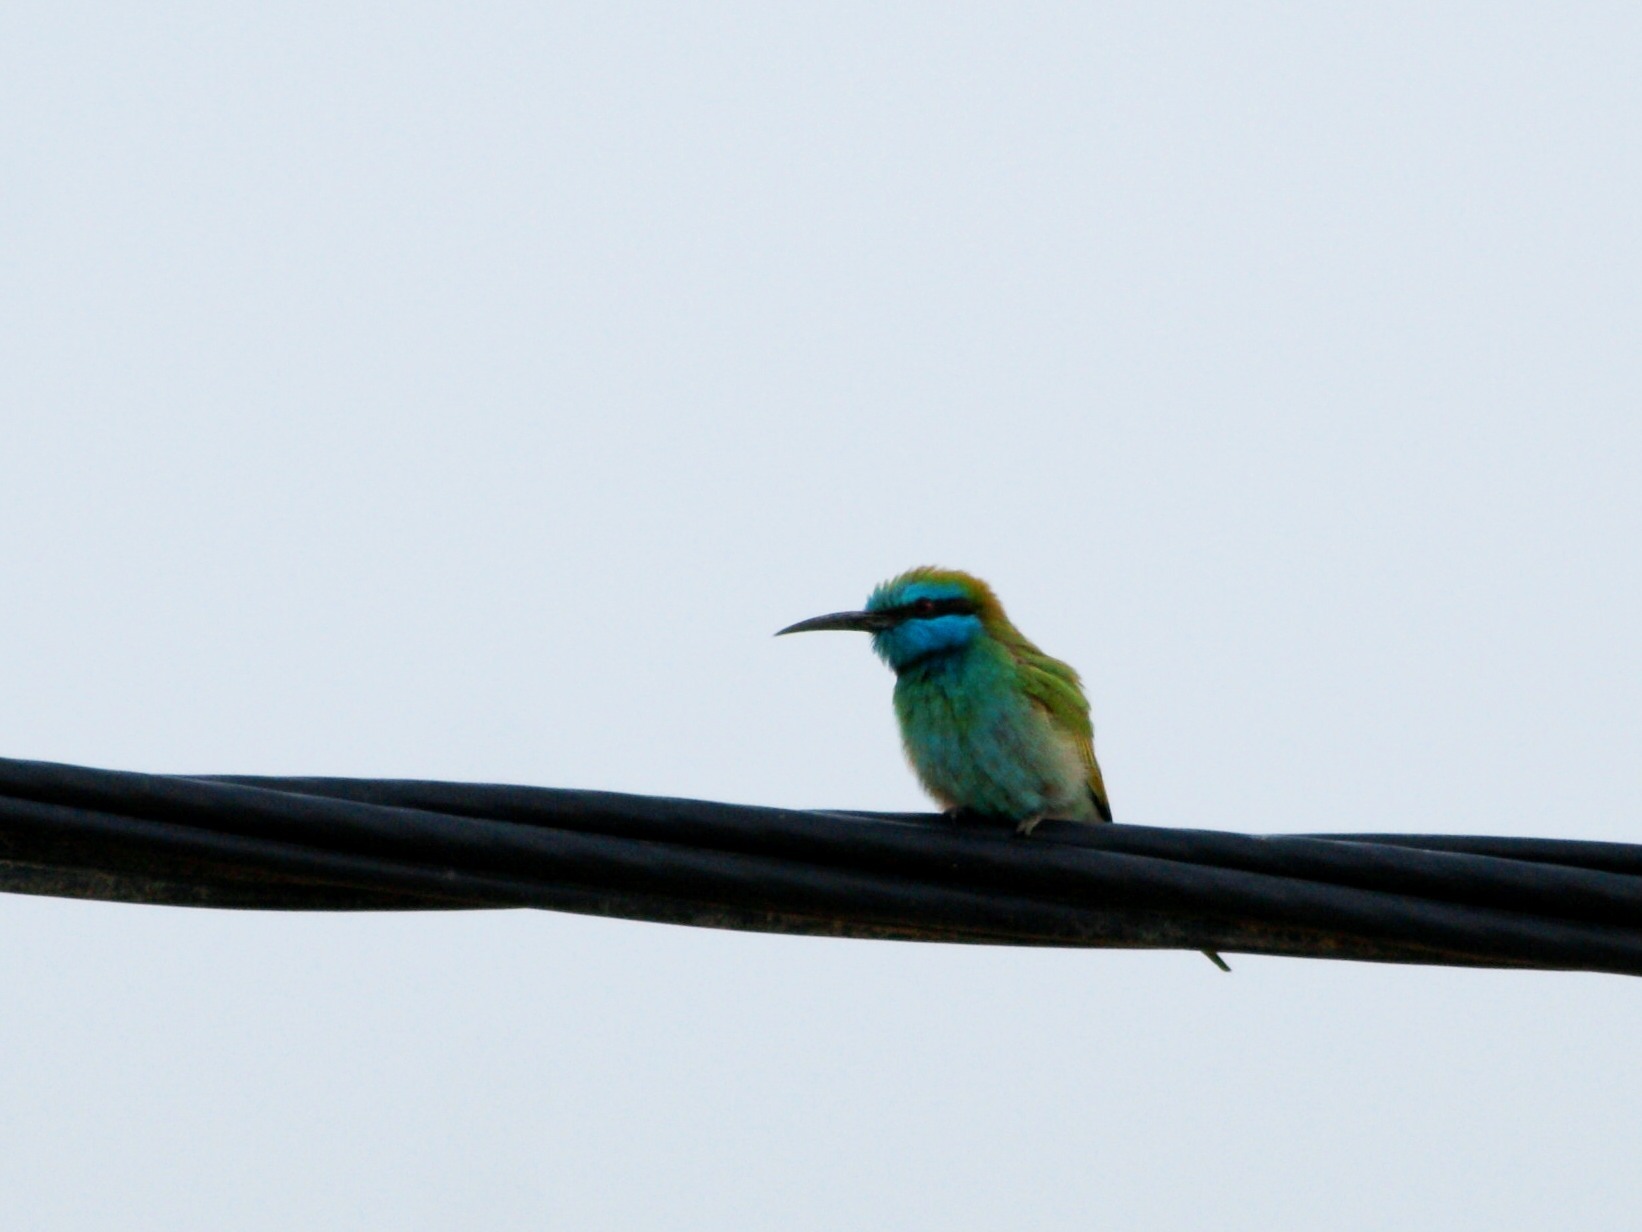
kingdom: Animalia
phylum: Chordata
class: Aves
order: Coraciiformes
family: Meropidae
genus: Merops
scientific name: Merops cyanophrys
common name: Arabian green bee-eater
